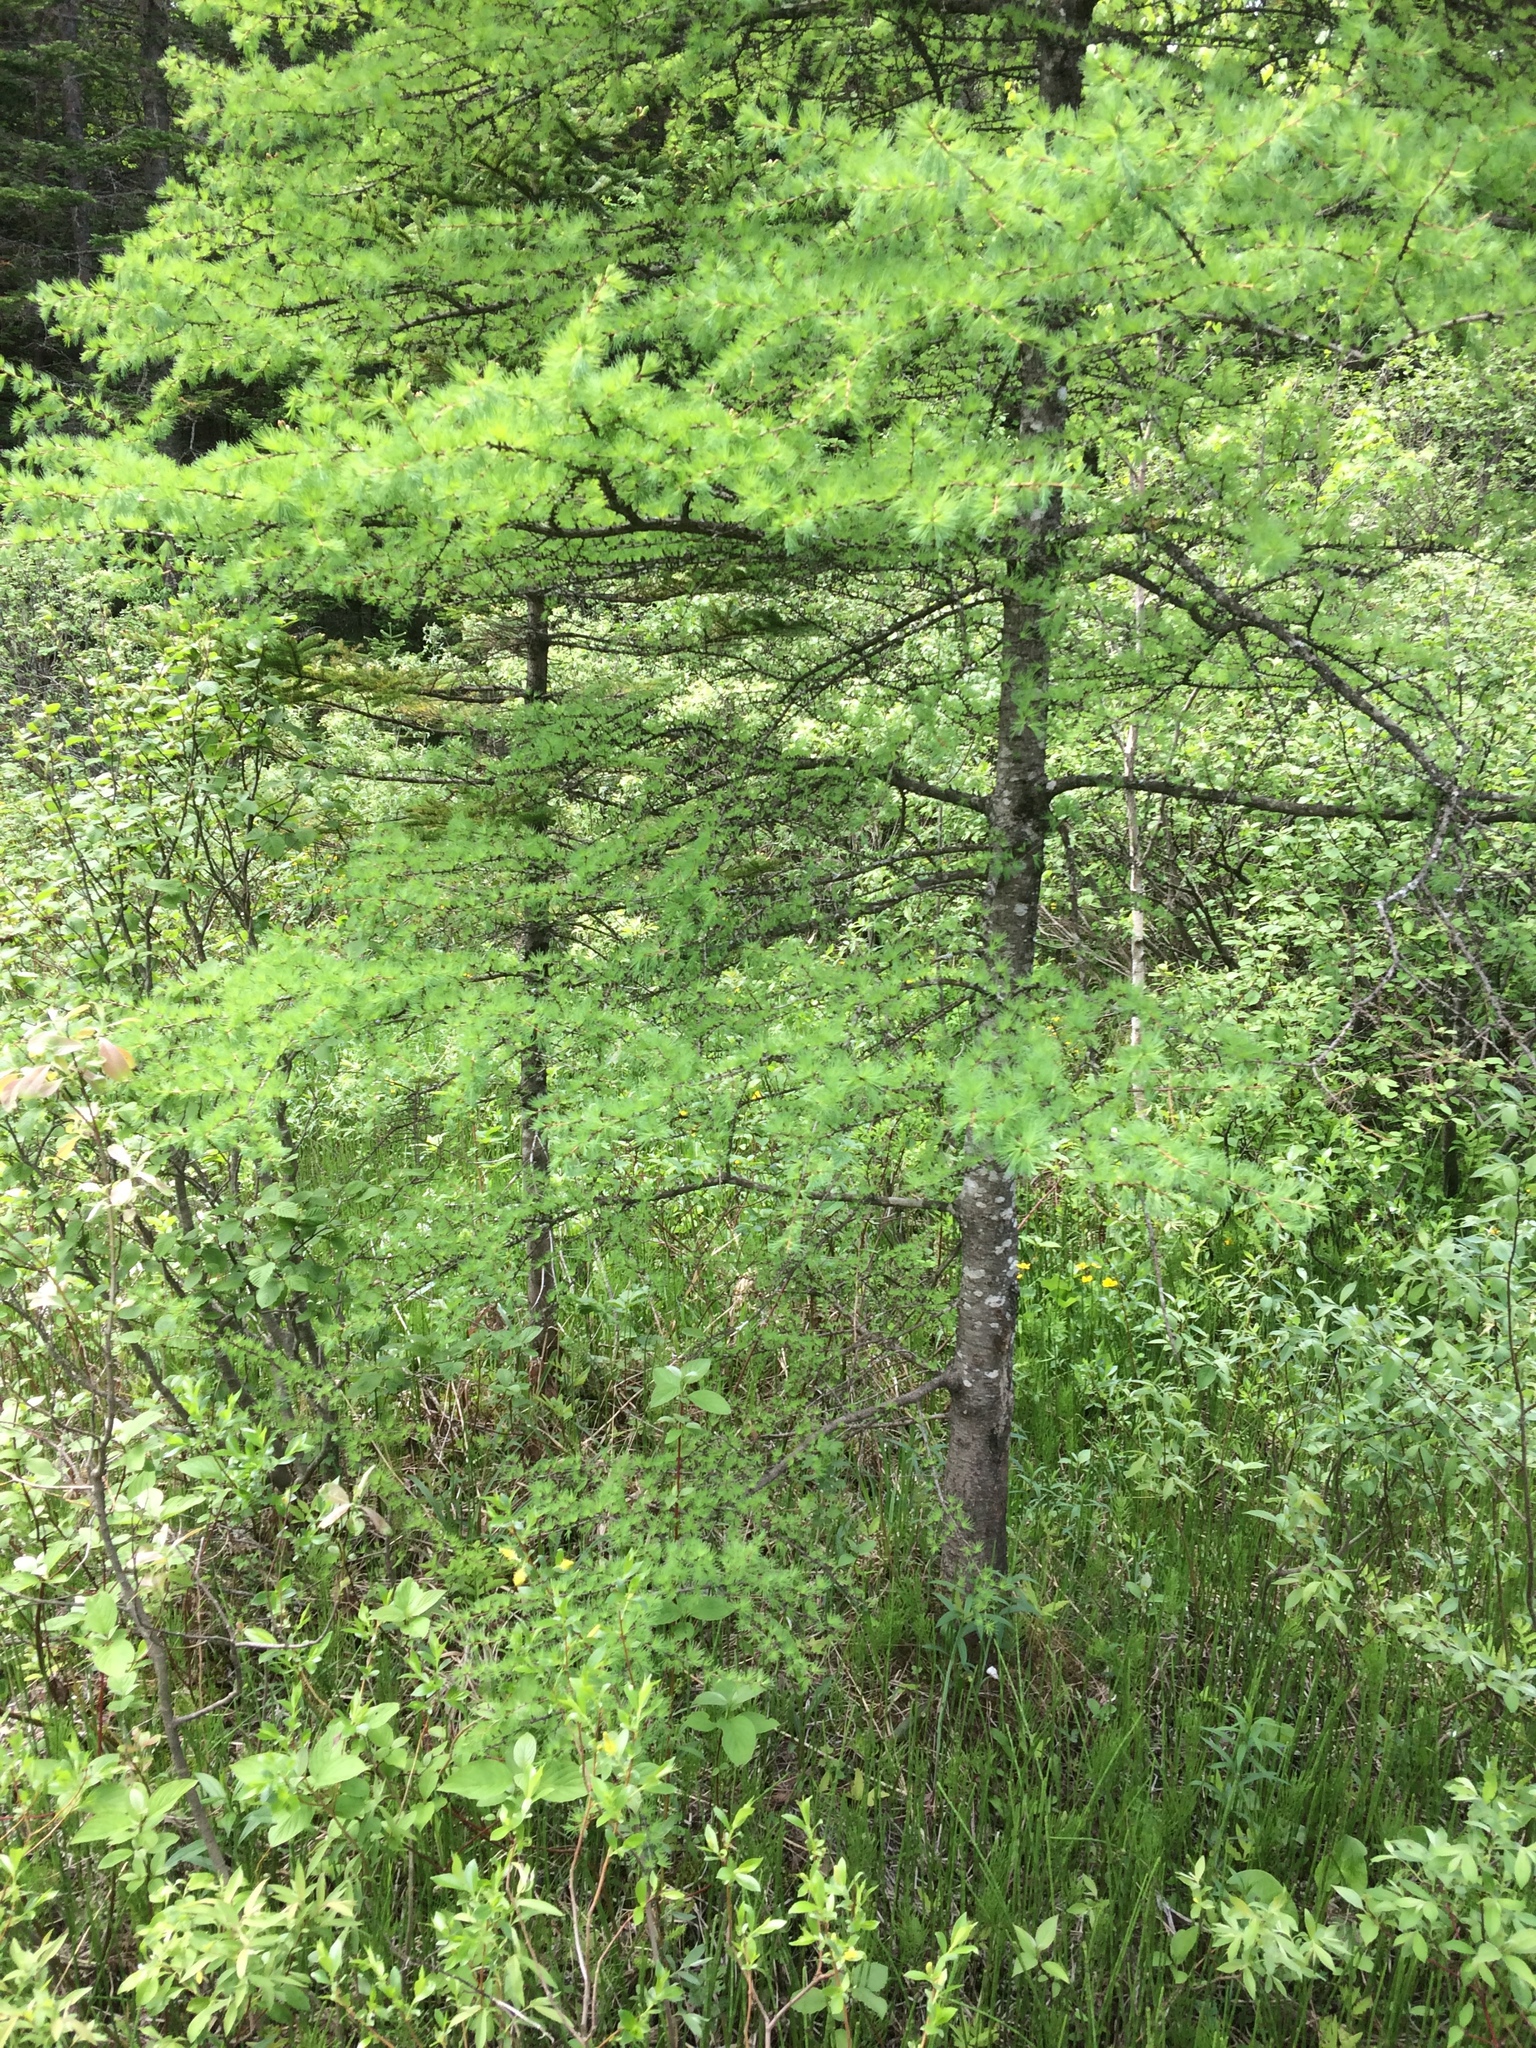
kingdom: Plantae
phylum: Tracheophyta
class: Pinopsida
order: Pinales
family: Pinaceae
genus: Larix
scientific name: Larix laricina
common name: American larch
